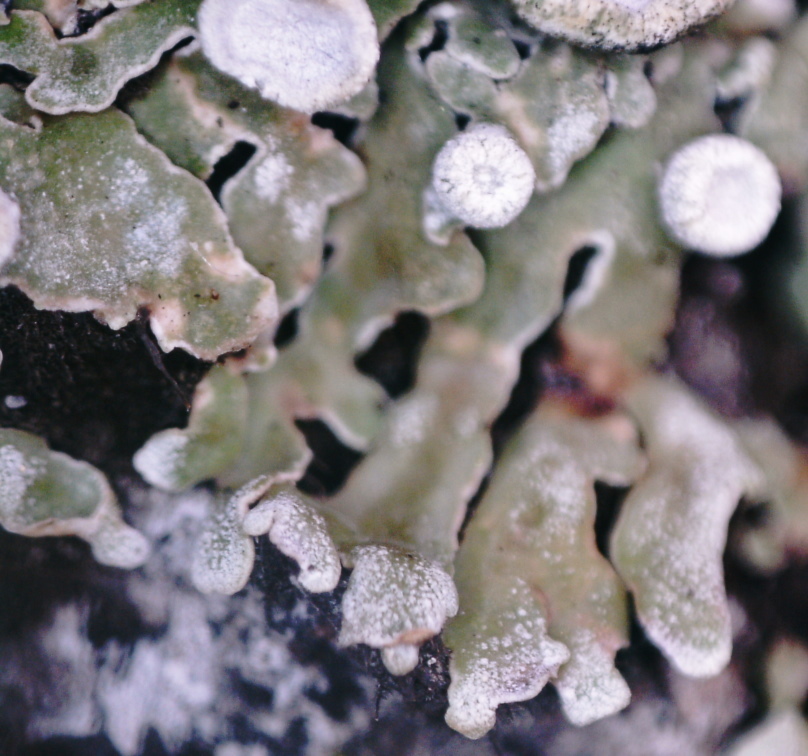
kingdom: Fungi
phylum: Ascomycota
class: Lecanoromycetes
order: Caliciales
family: Physciaceae
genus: Physconia
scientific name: Physconia distorta
